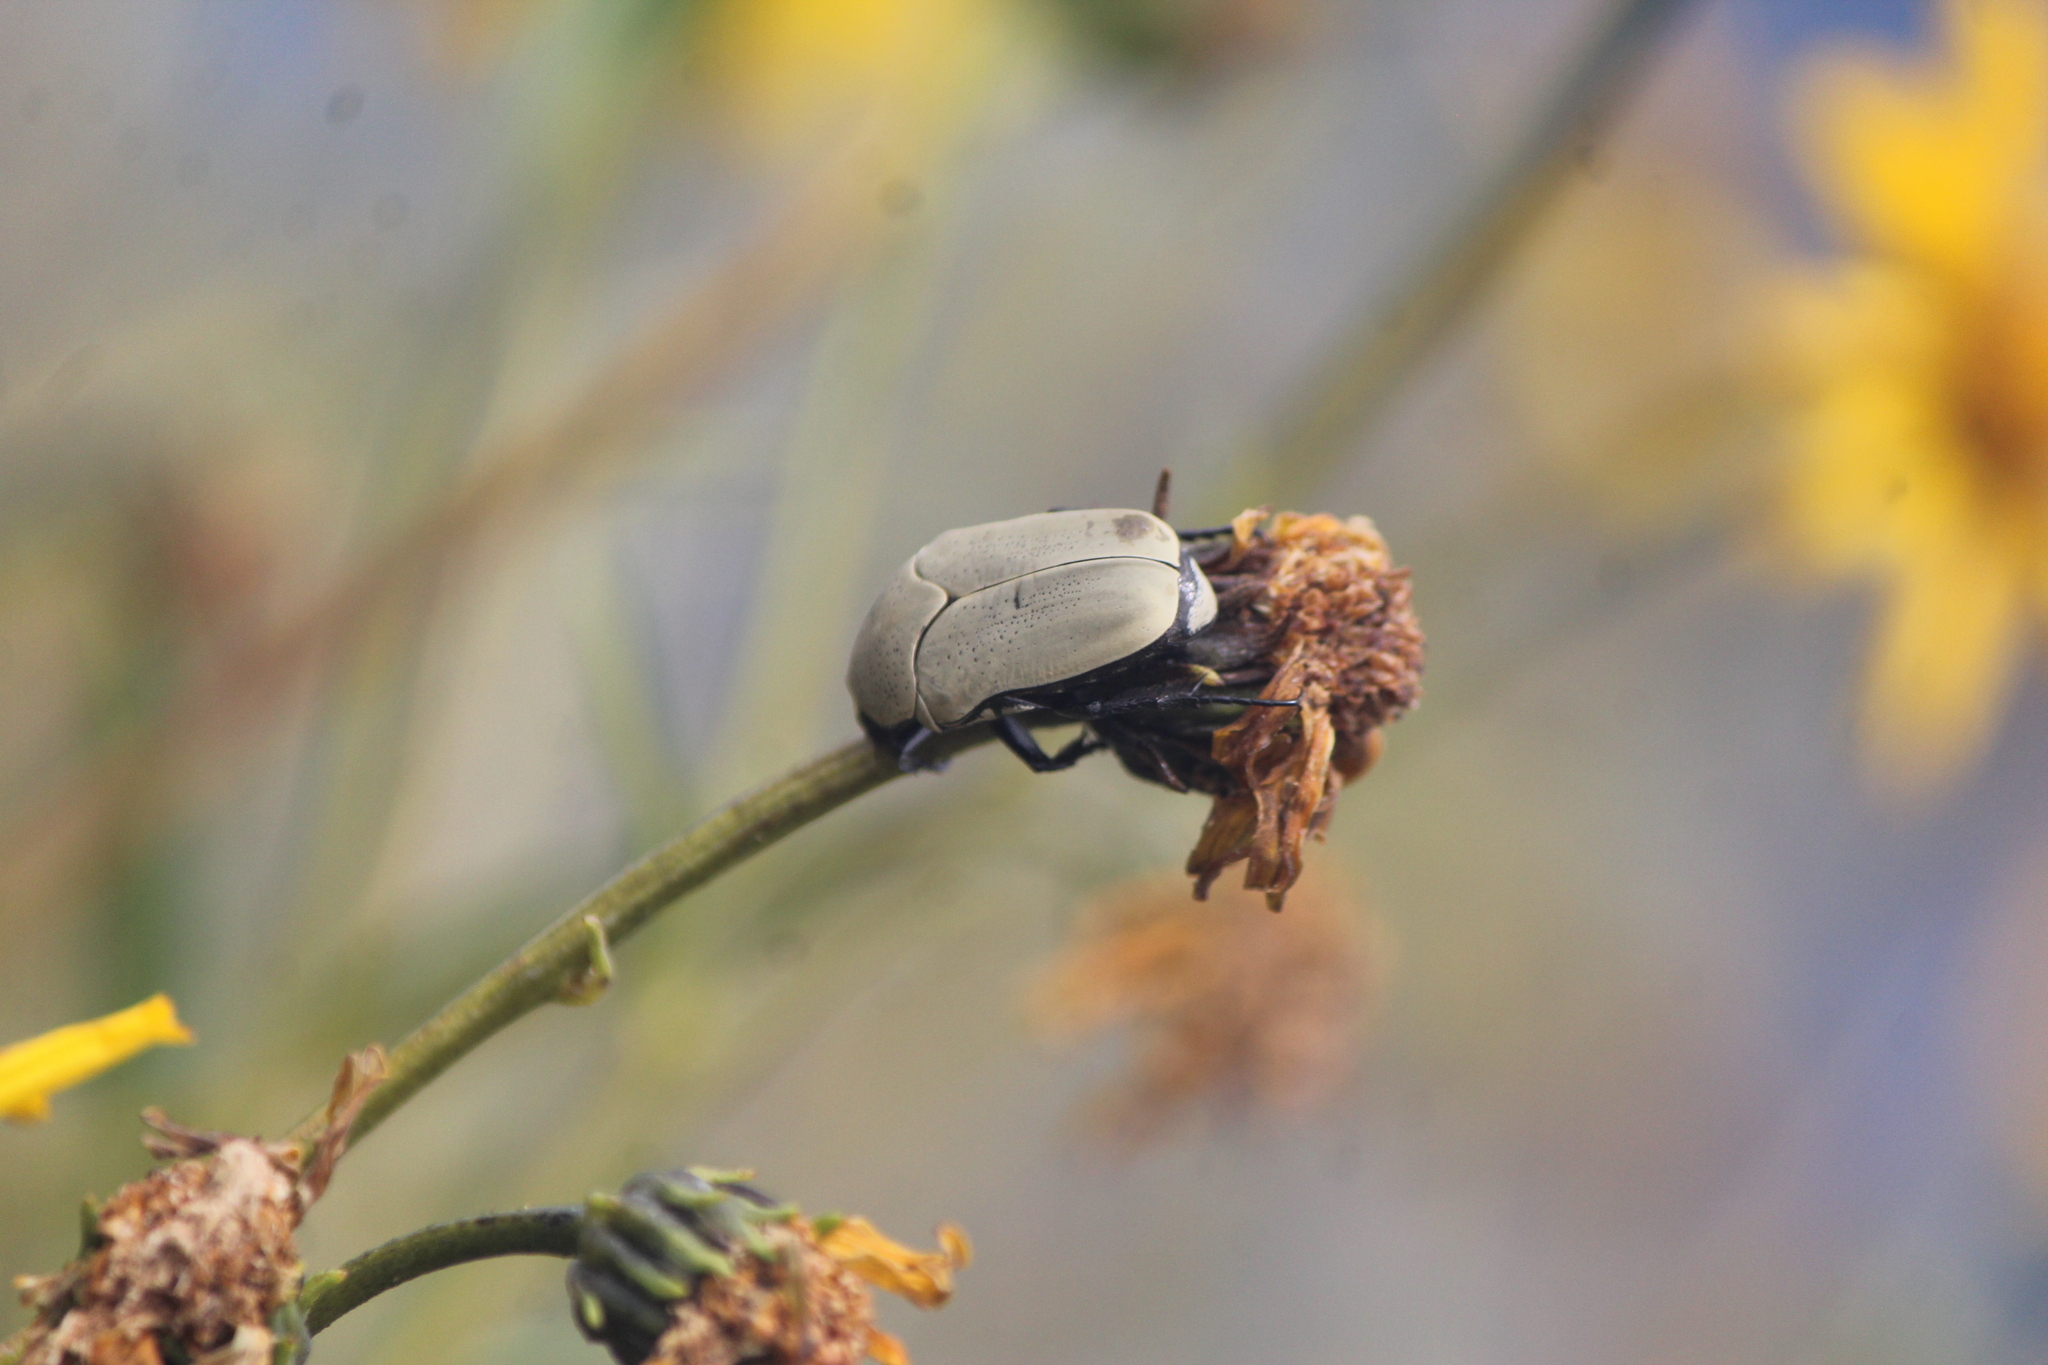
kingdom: Animalia
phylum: Arthropoda
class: Insecta
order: Coleoptera
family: Scarabaeidae
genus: Hologymnetis
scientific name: Hologymnetis cinerea
